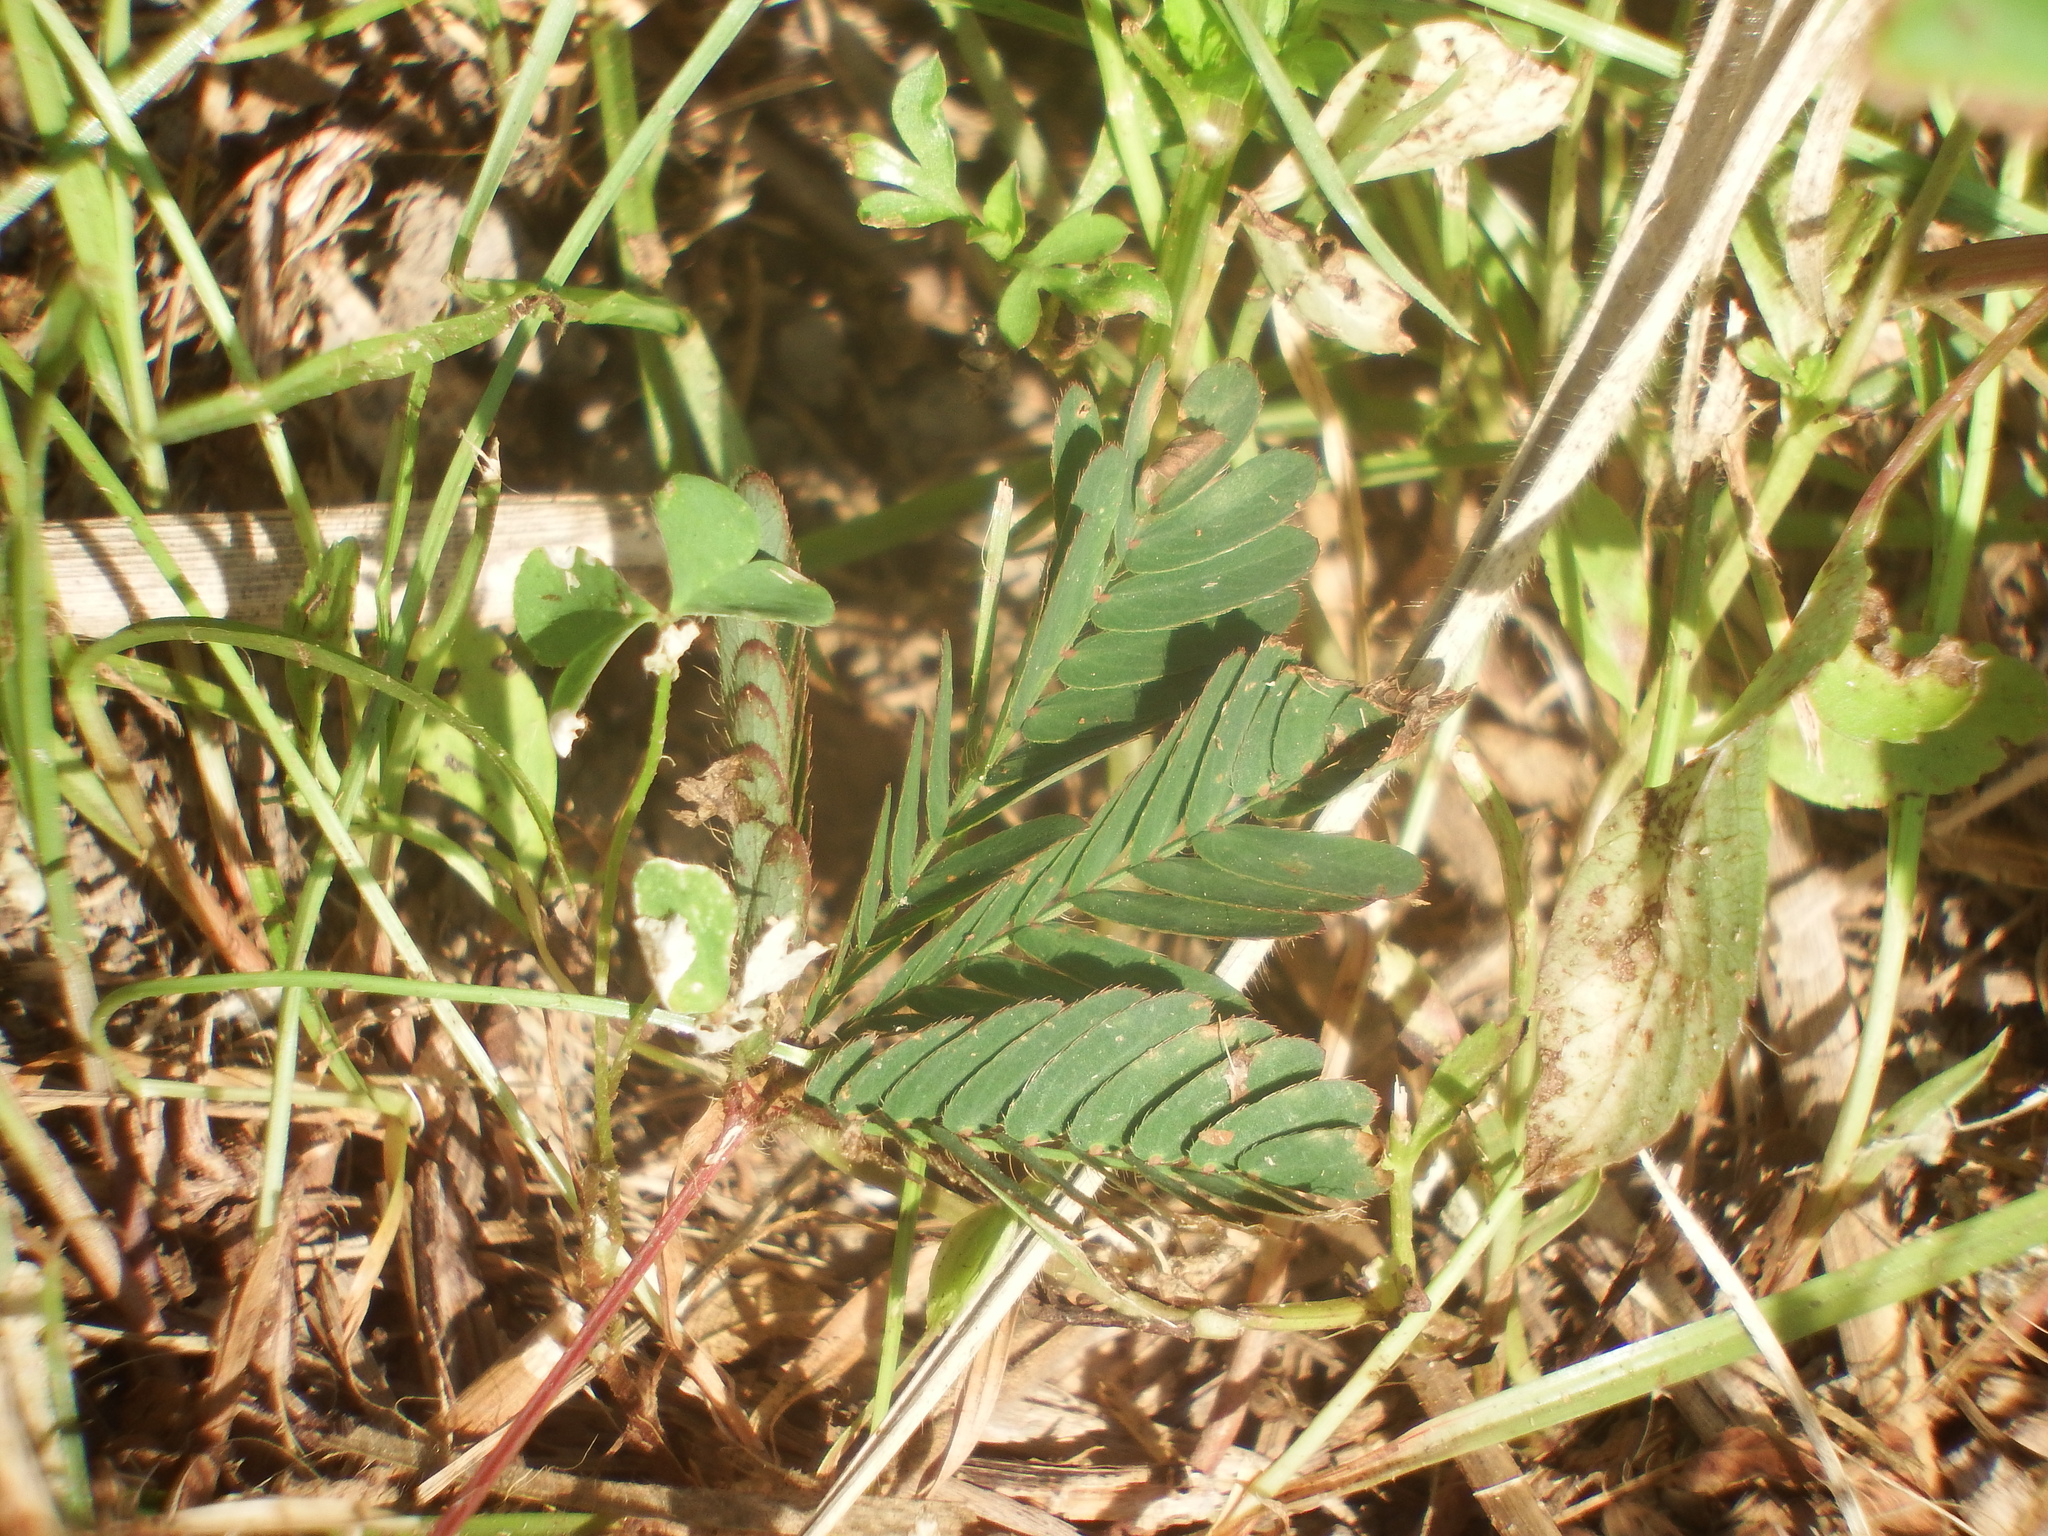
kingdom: Plantae
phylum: Tracheophyta
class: Magnoliopsida
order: Fabales
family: Fabaceae
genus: Mimosa
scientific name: Mimosa pudica
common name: Sensitive plant
